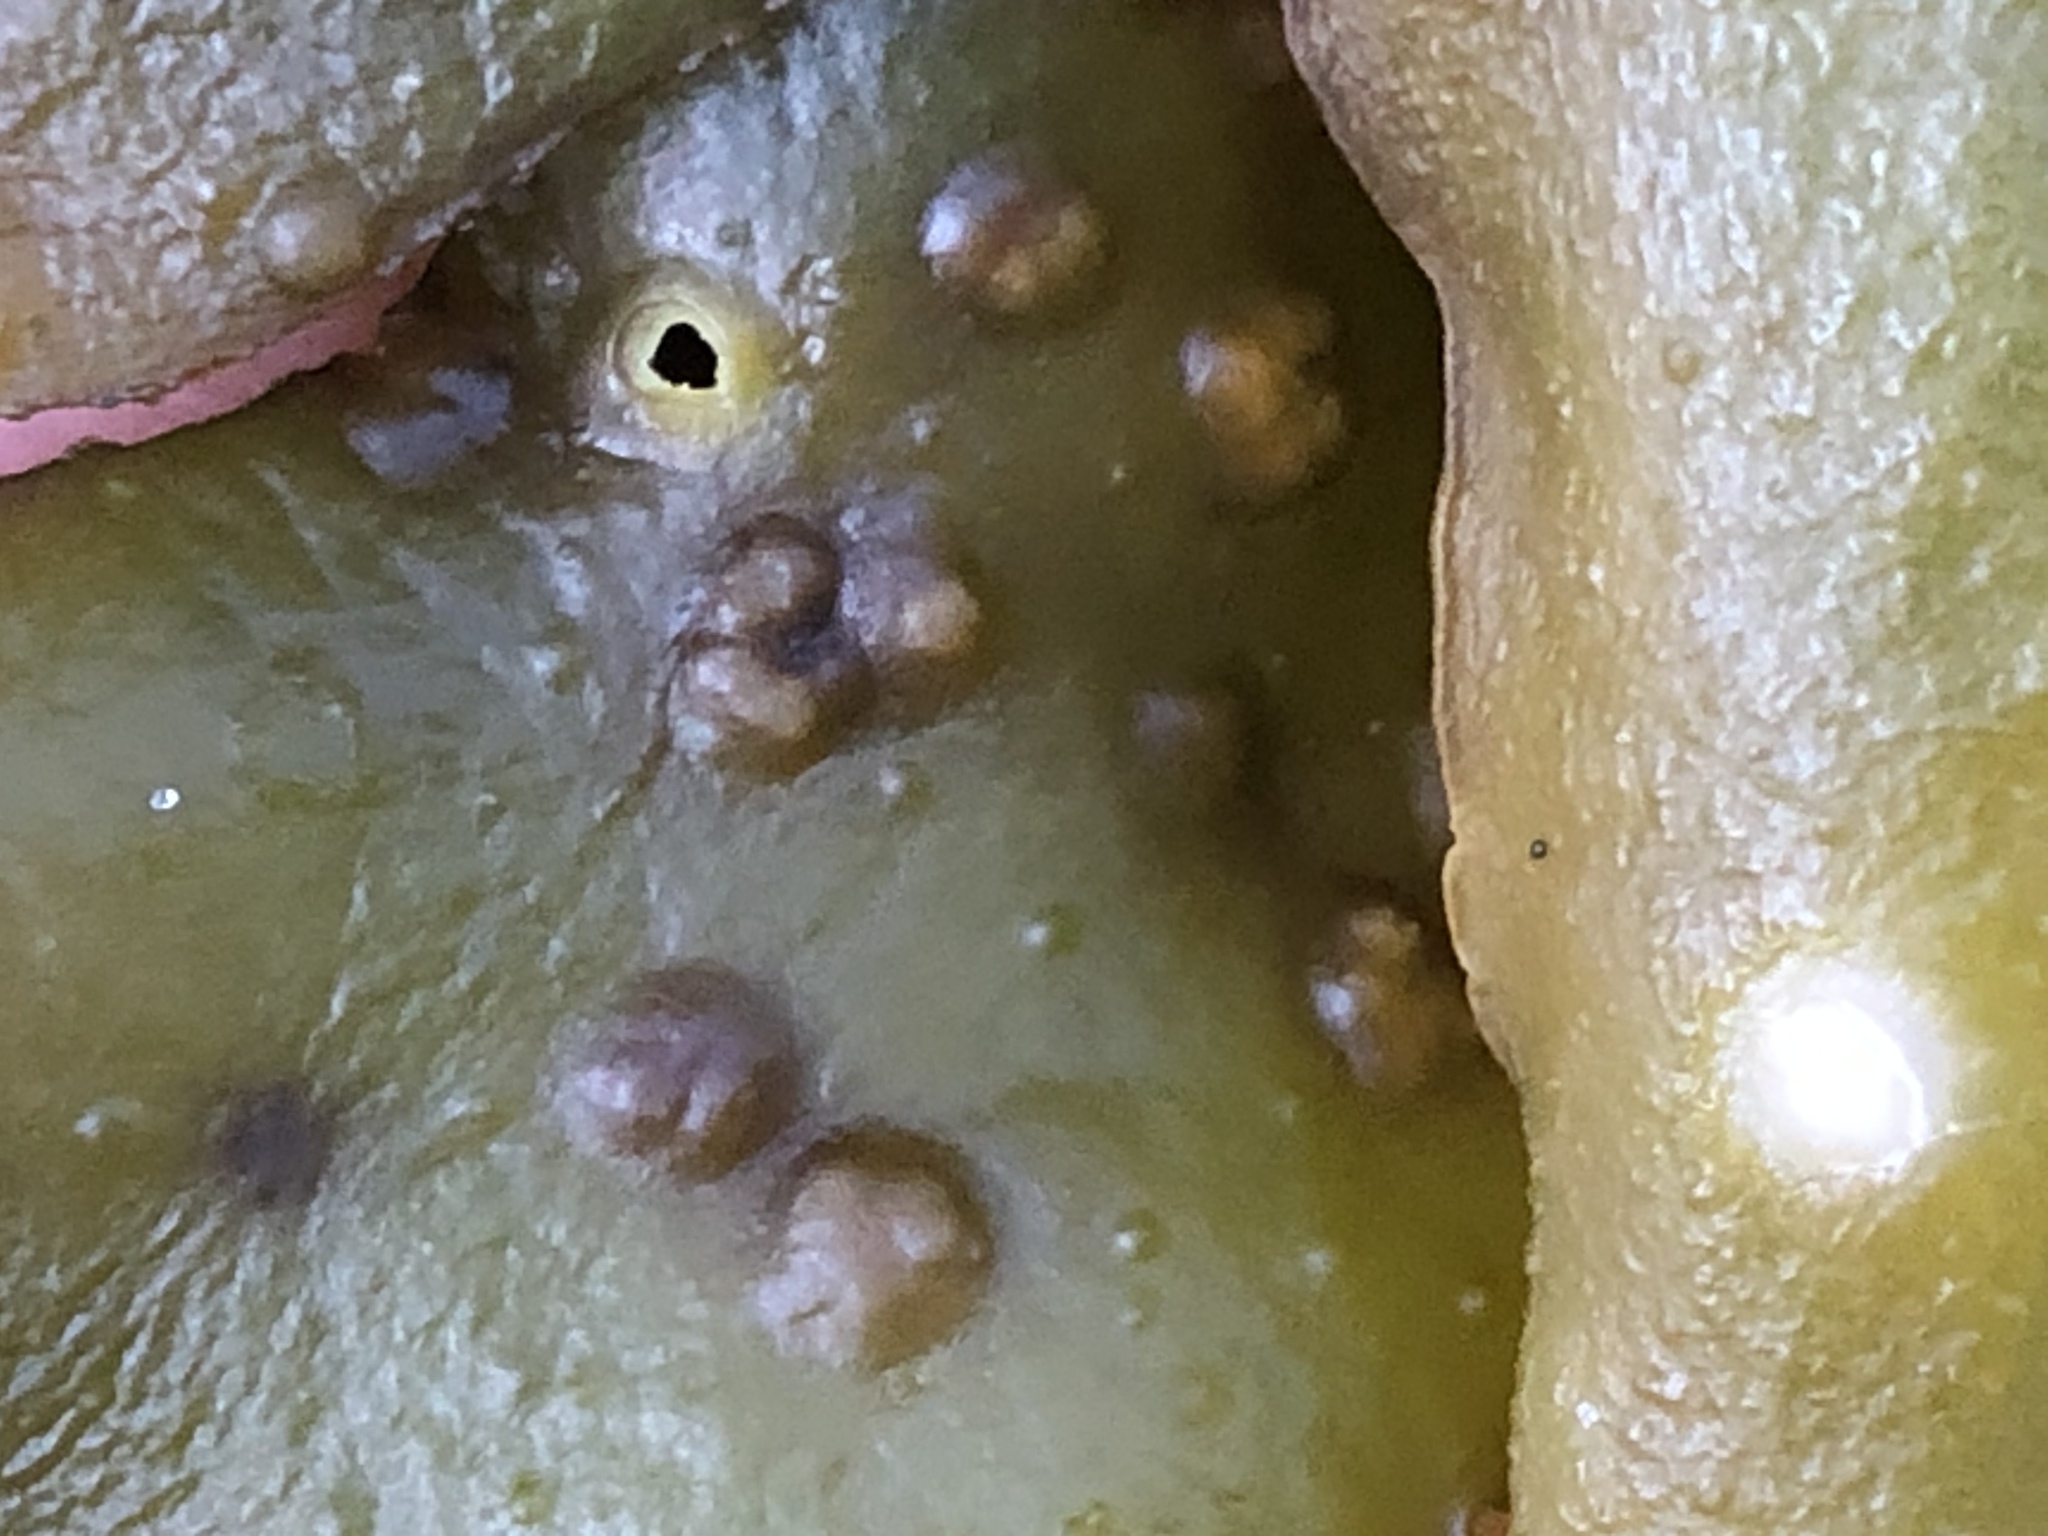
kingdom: Plantae
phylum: Rhodophyta
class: Florideophyceae
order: Gigartinales
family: Gigartinaceae
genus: Mazzaella
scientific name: Mazzaella flaccida
